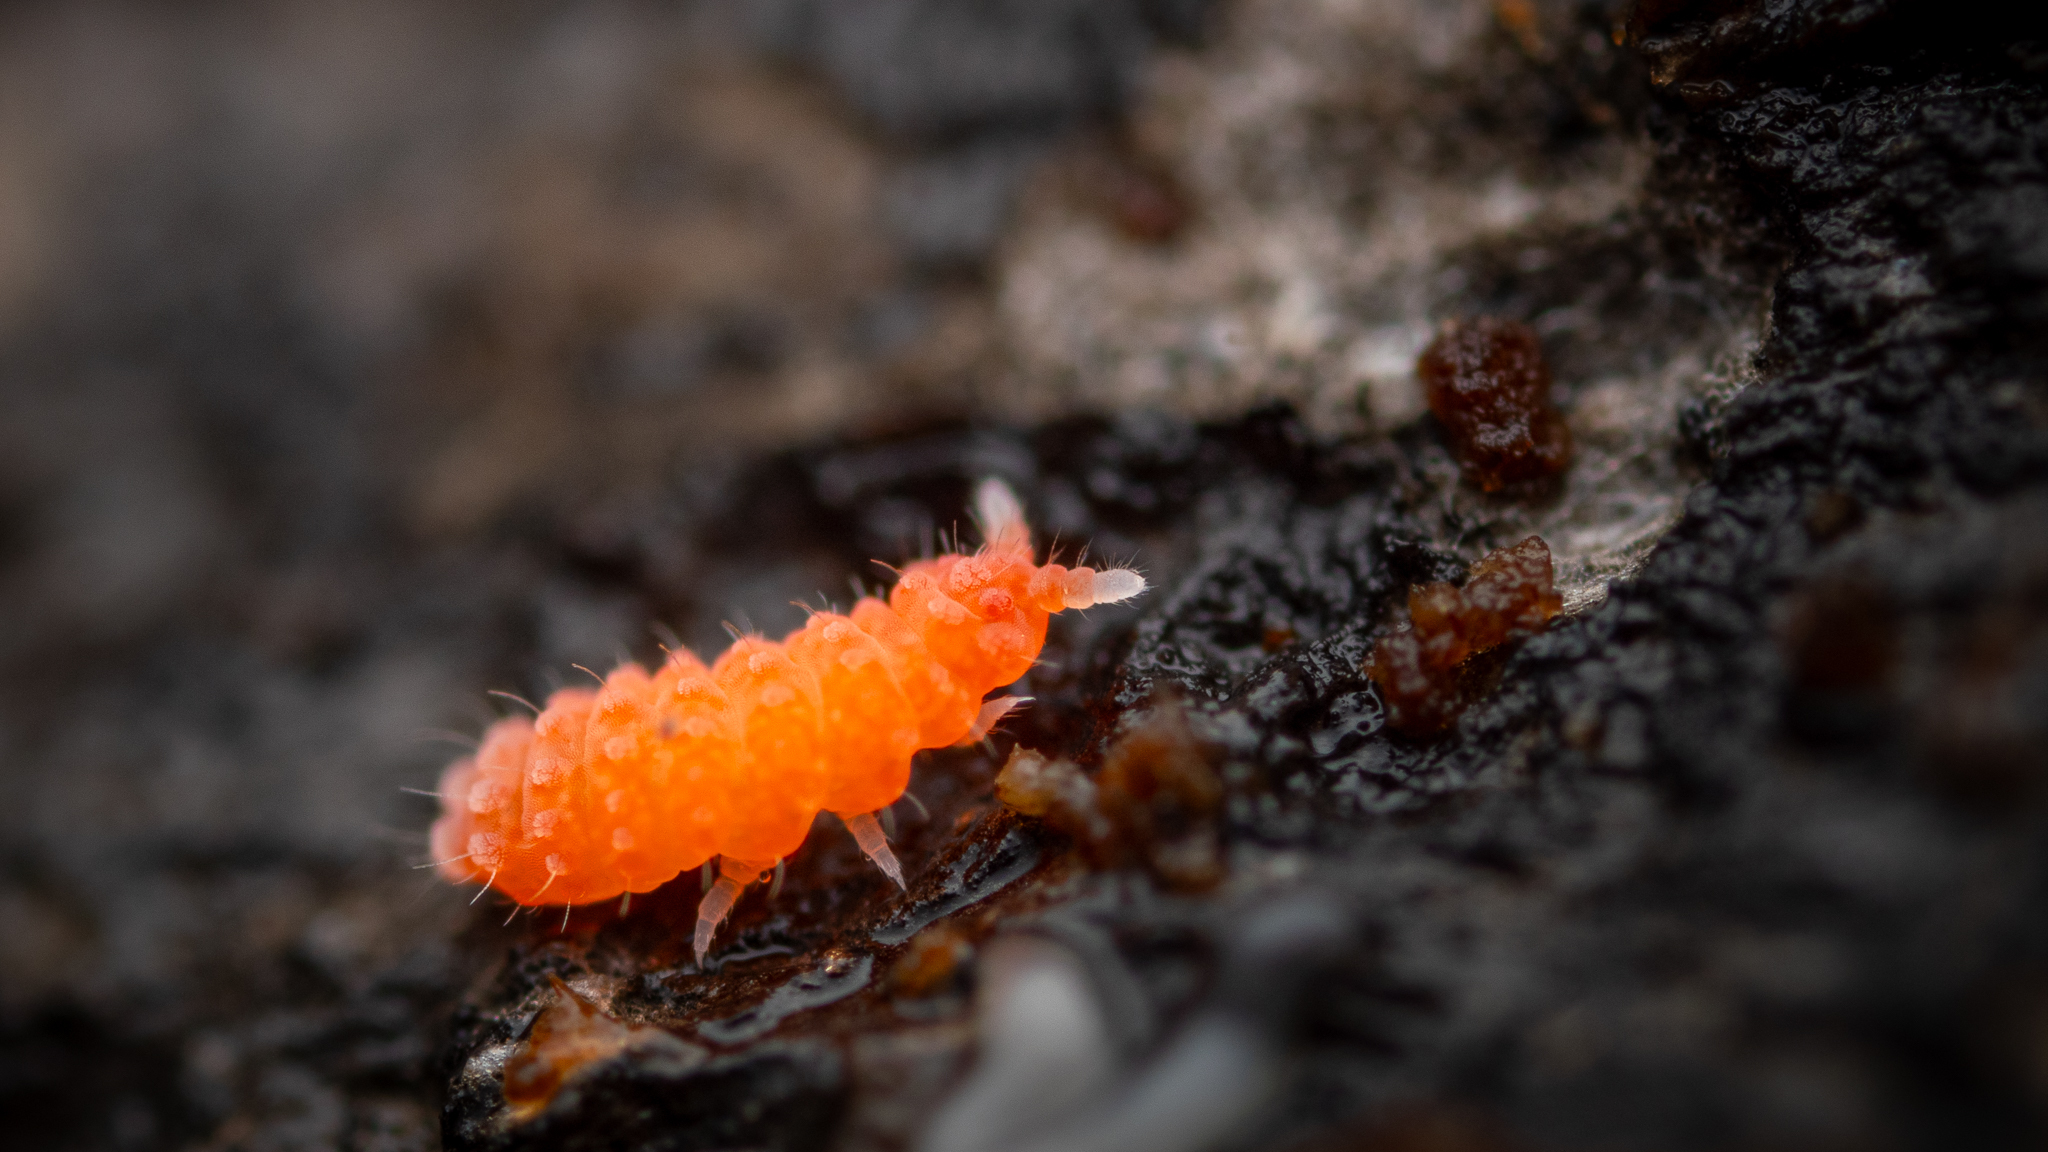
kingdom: Animalia
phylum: Arthropoda
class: Collembola
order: Poduromorpha
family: Neanuridae
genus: Bilobella
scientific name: Bilobella braunerae
